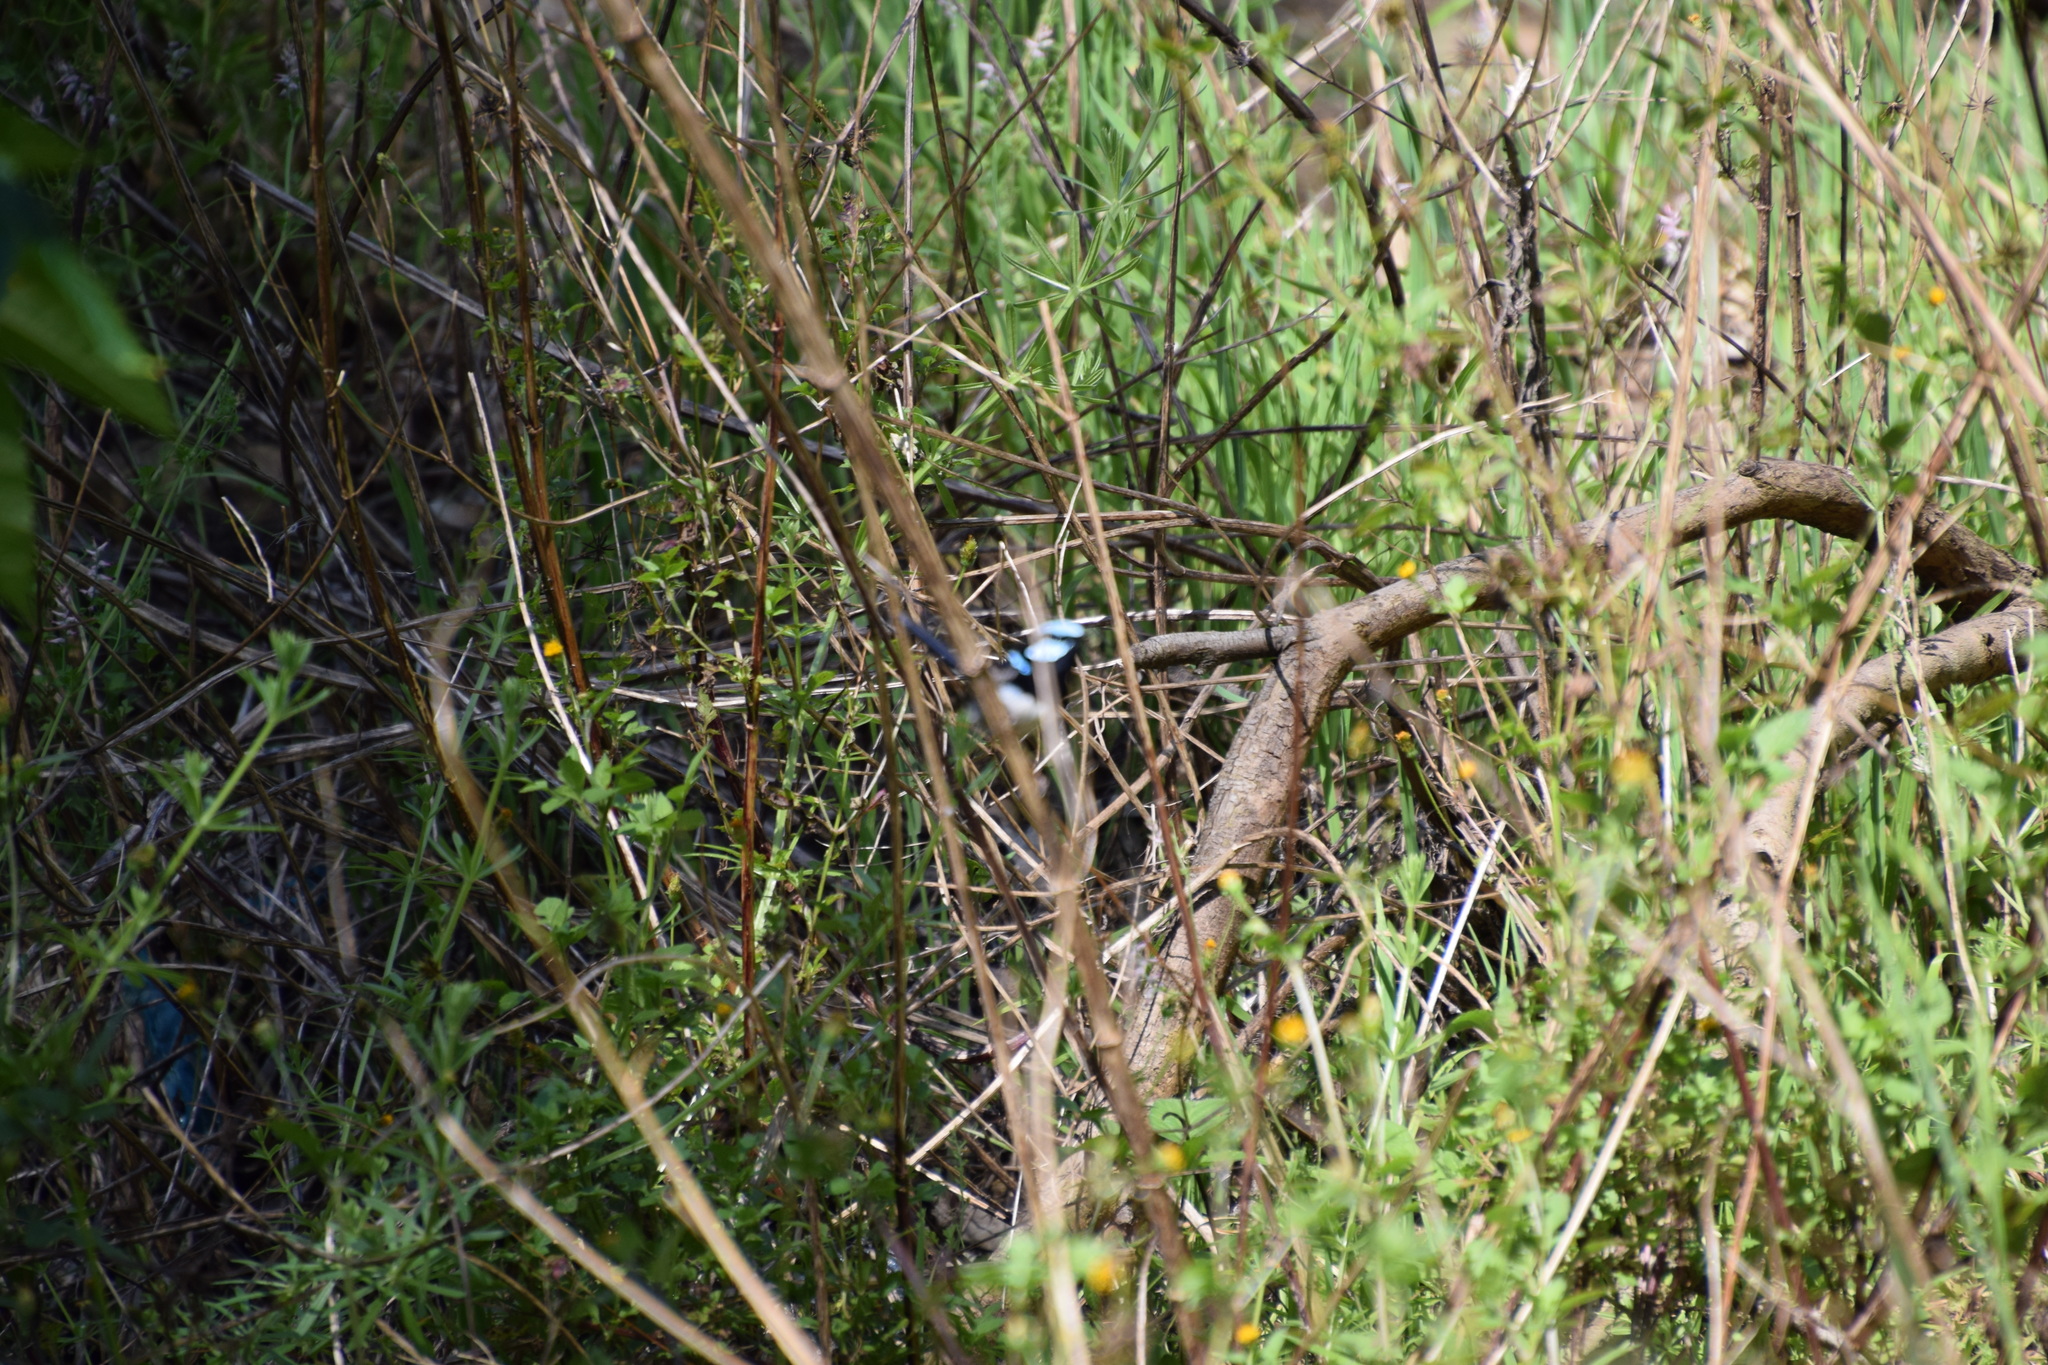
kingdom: Animalia
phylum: Chordata
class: Aves
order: Passeriformes
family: Maluridae
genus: Malurus
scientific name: Malurus cyaneus
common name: Superb fairywren
